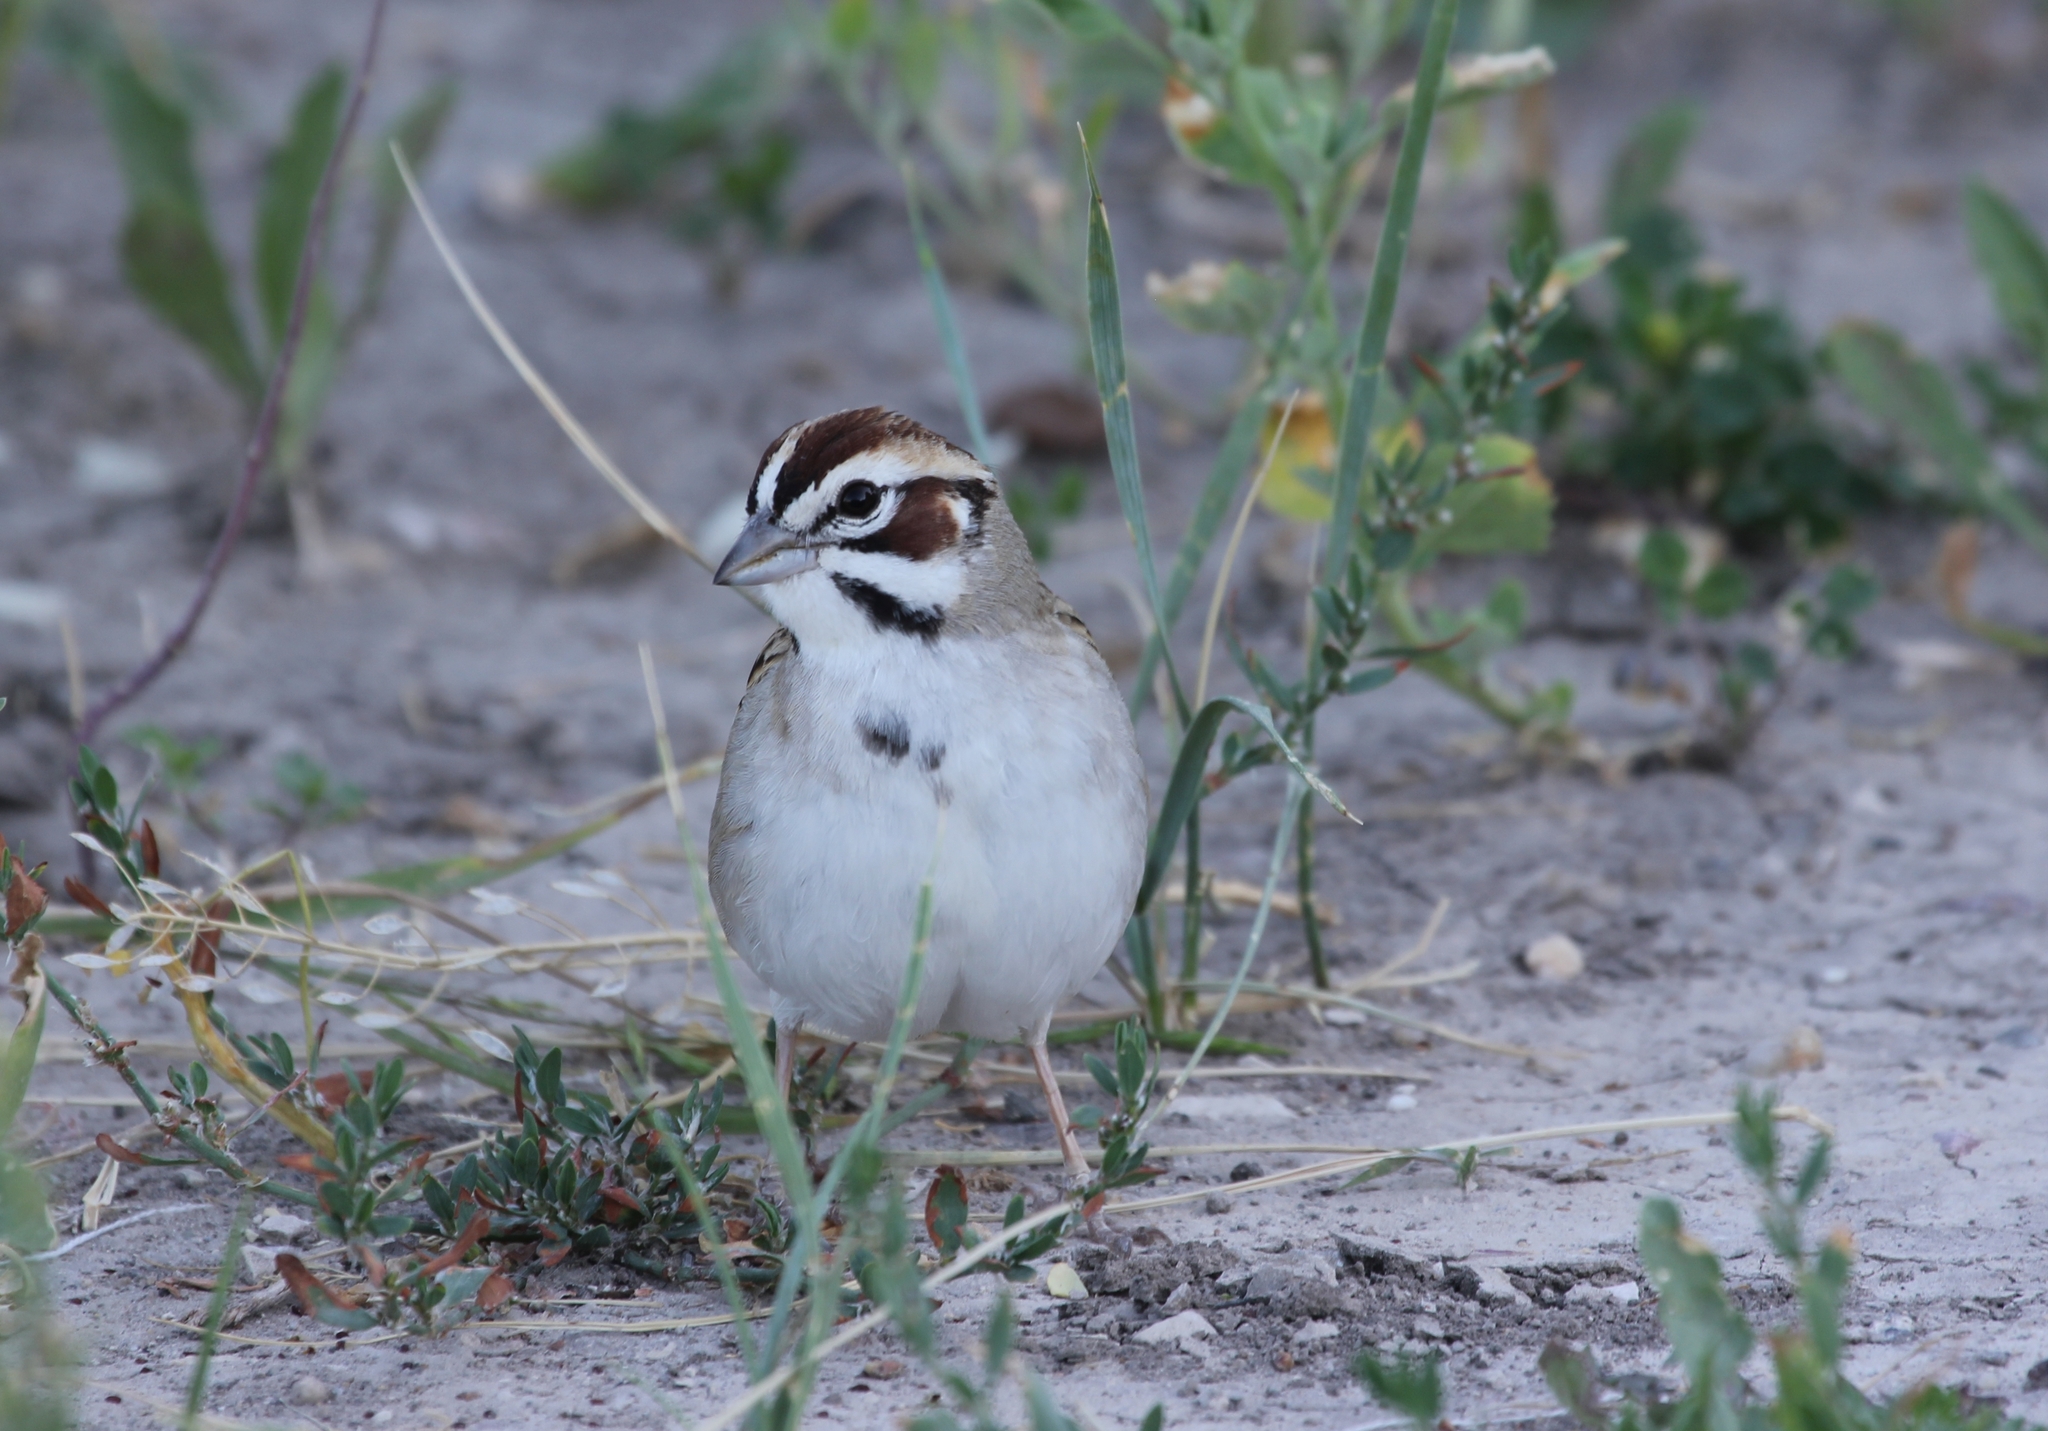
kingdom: Animalia
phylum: Chordata
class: Aves
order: Passeriformes
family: Passerellidae
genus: Chondestes
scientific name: Chondestes grammacus
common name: Lark sparrow
